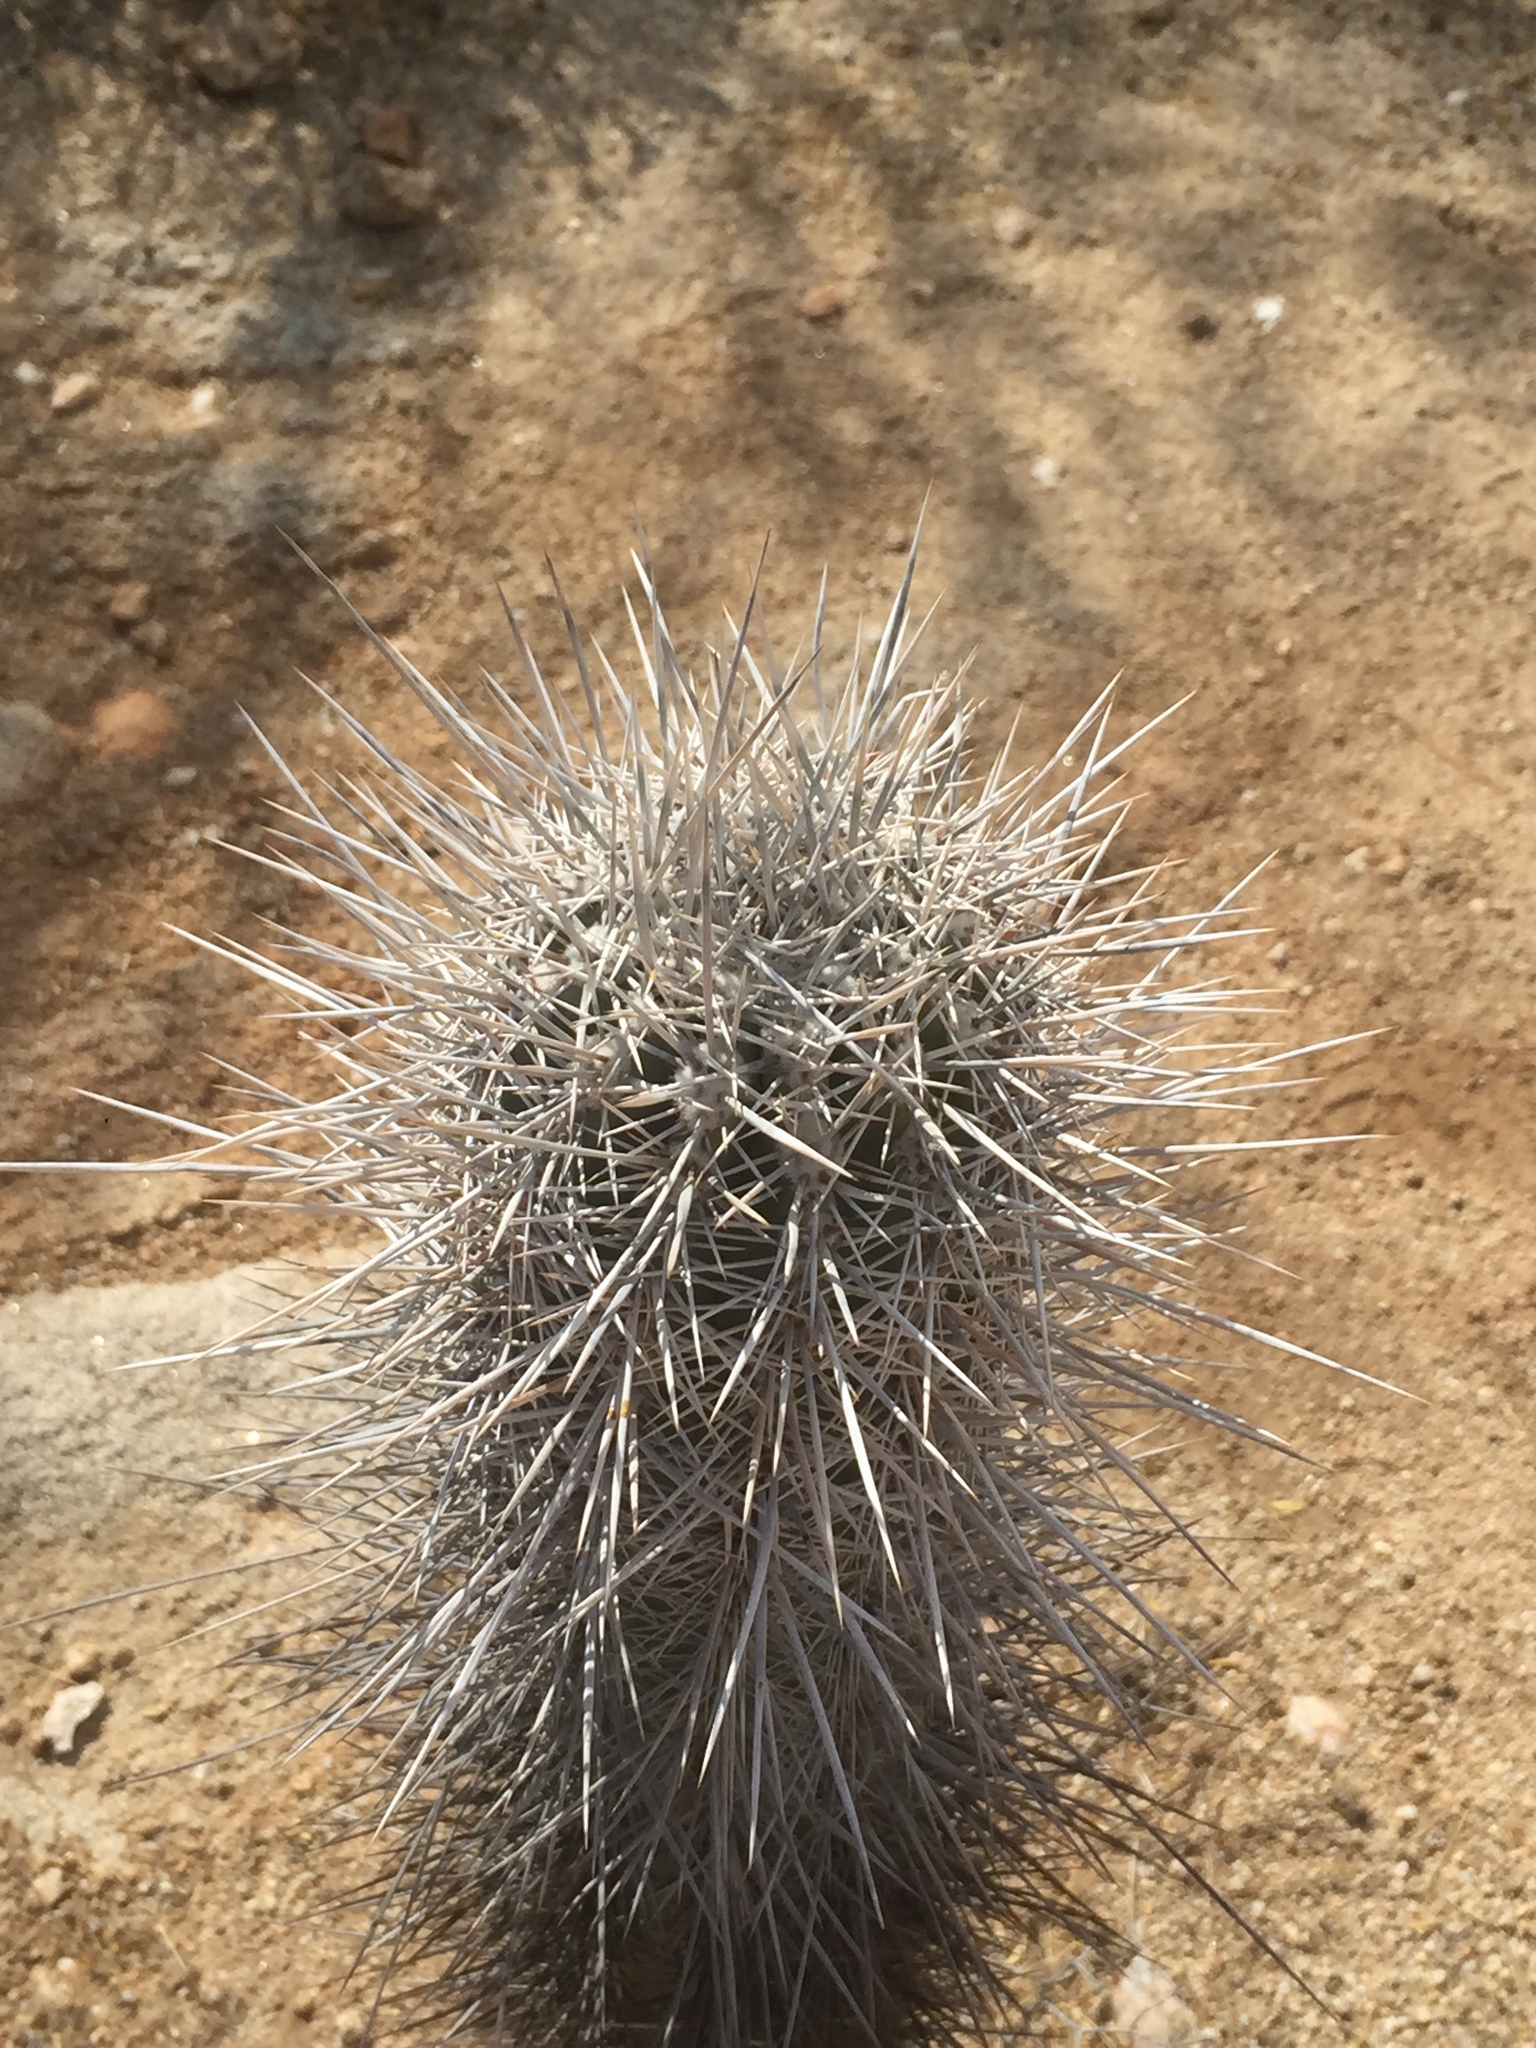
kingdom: Plantae
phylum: Tracheophyta
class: Magnoliopsida
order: Caryophyllales
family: Cactaceae
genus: Pachycereus
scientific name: Pachycereus pringlei
